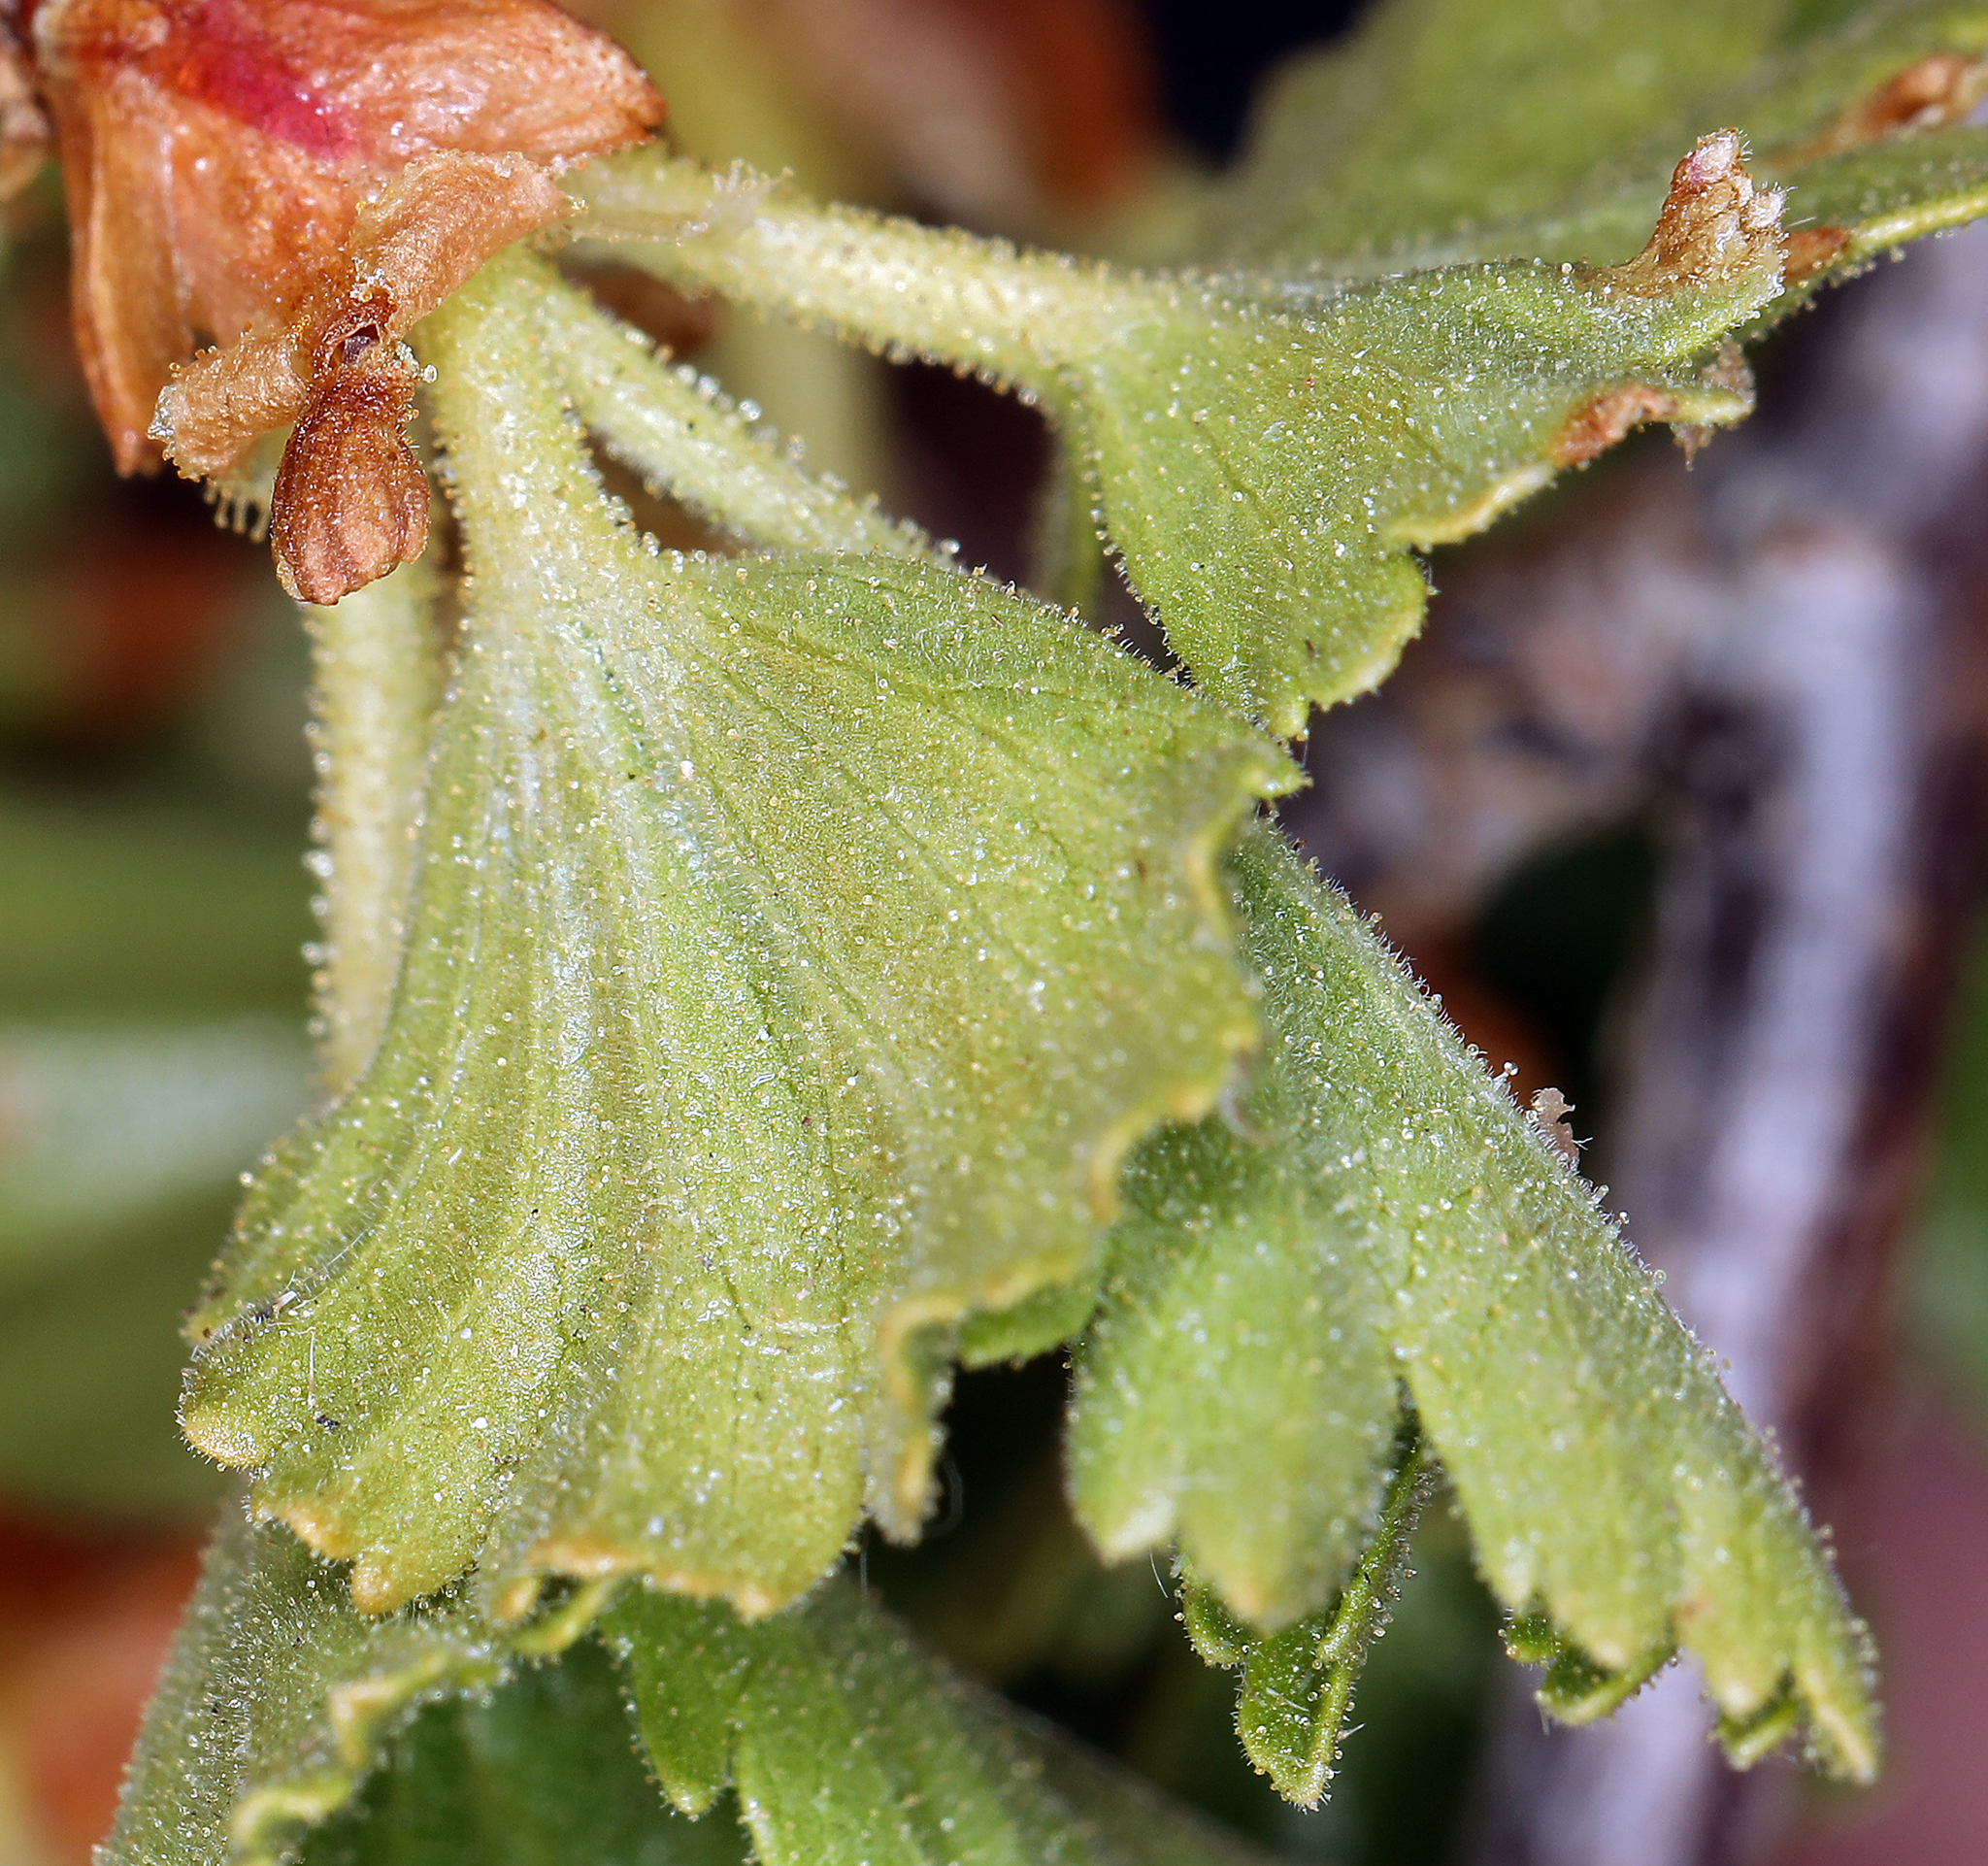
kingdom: Plantae
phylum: Tracheophyta
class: Magnoliopsida
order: Saxifragales
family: Grossulariaceae
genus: Ribes
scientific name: Ribes cereum
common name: Wax currant
